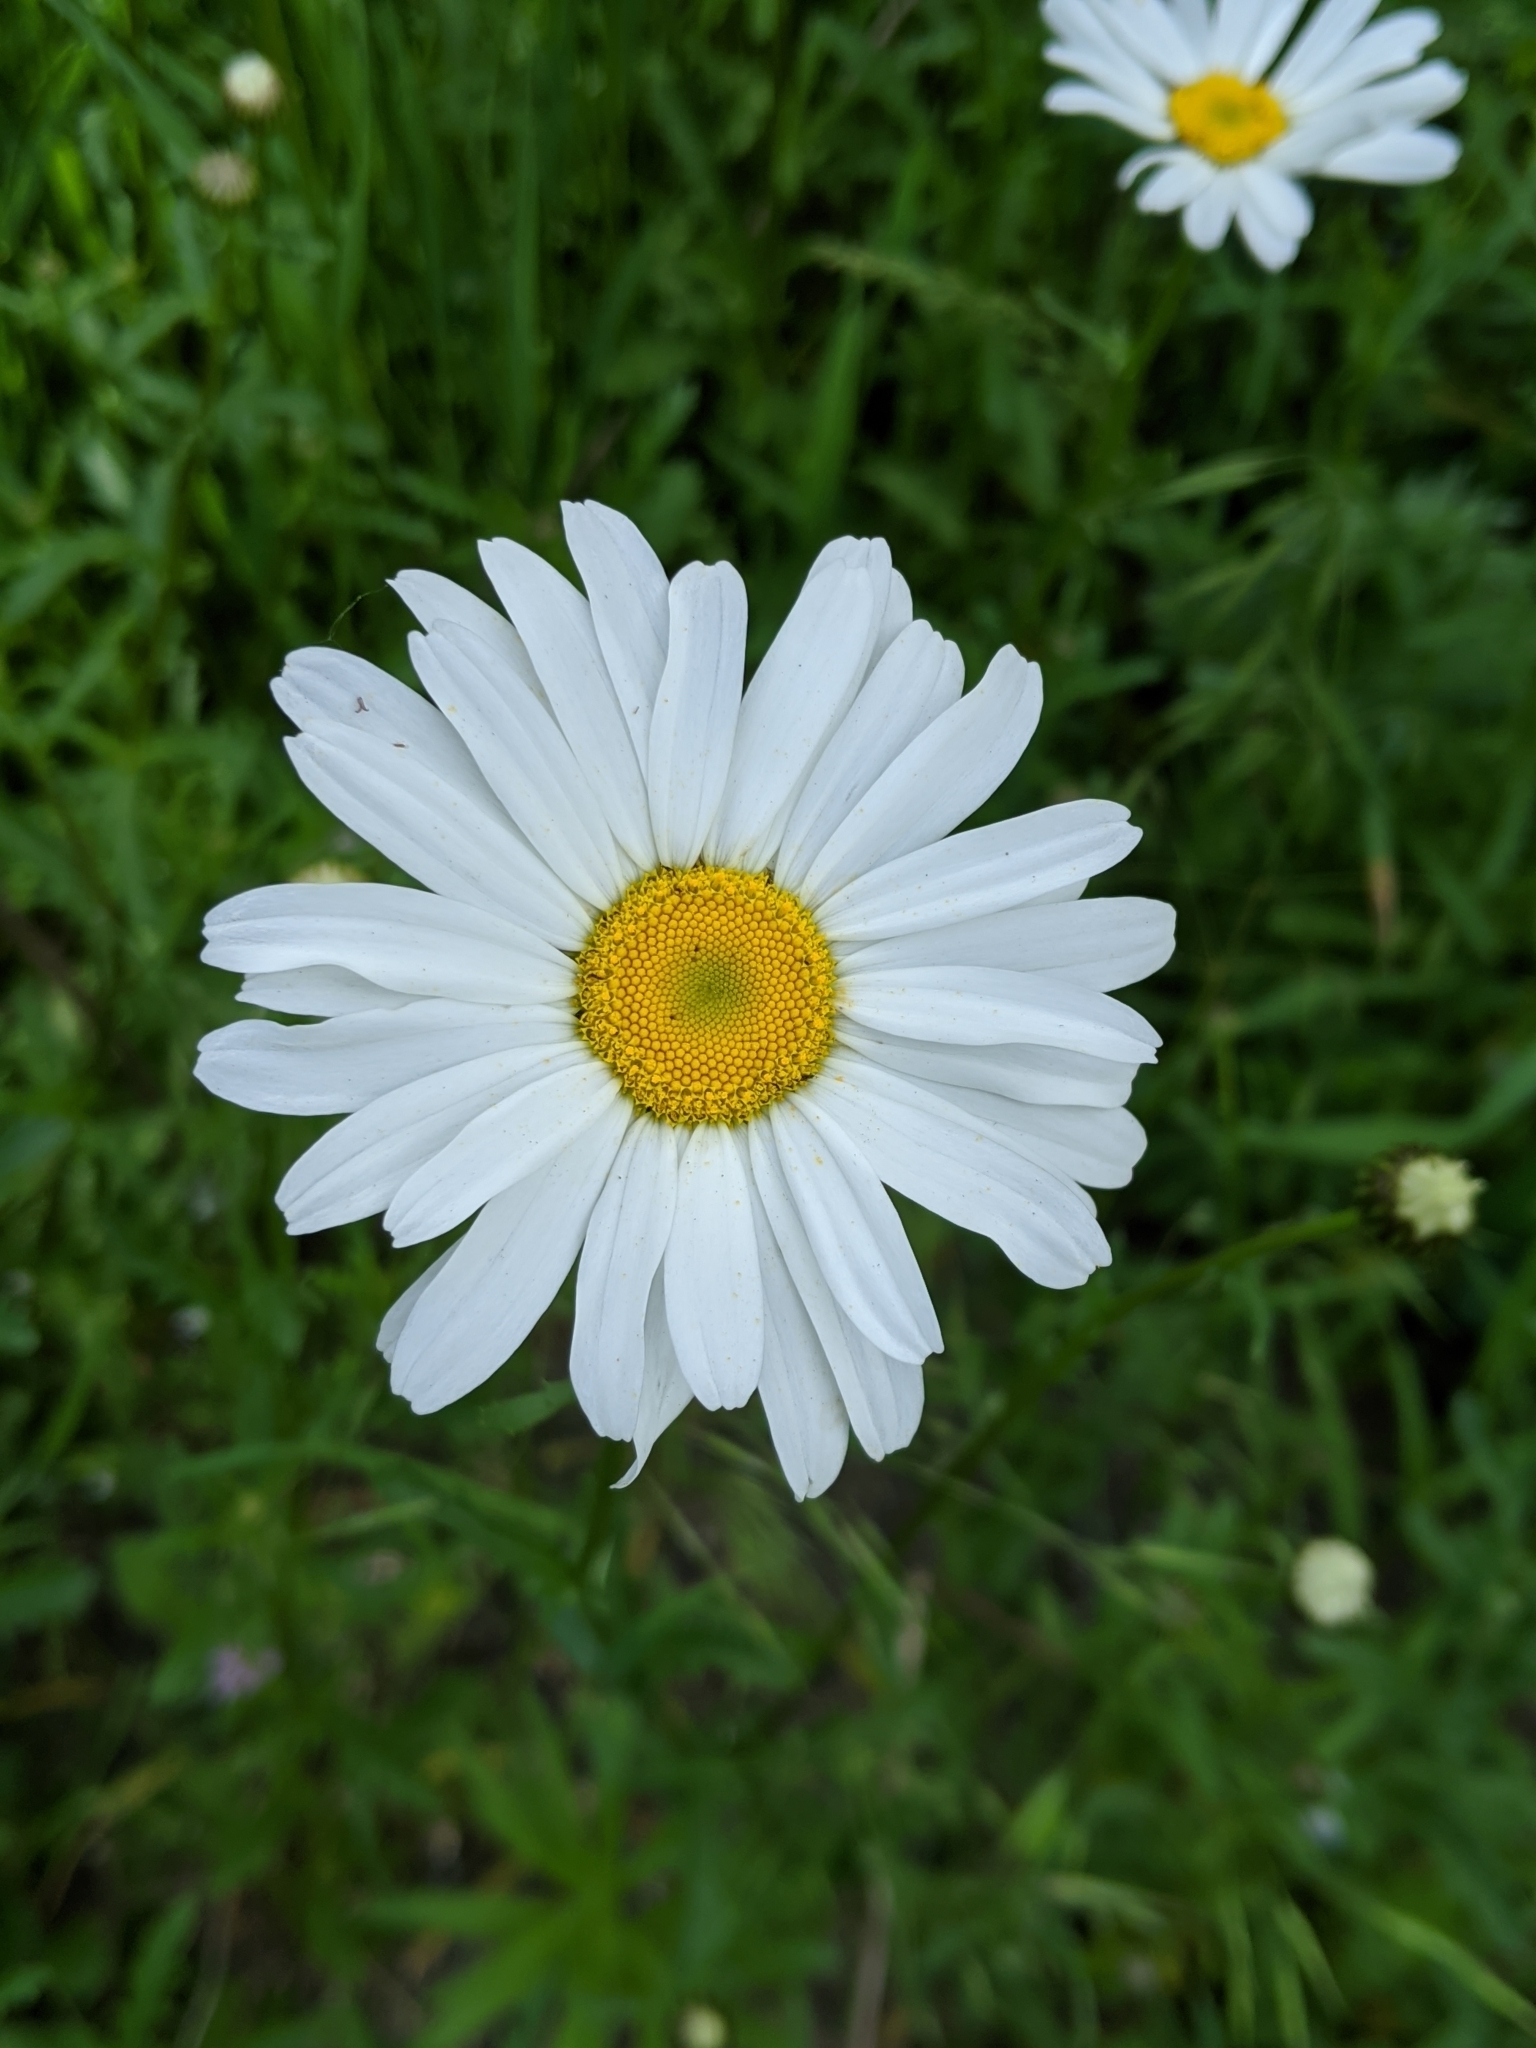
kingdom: Plantae
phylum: Tracheophyta
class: Magnoliopsida
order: Asterales
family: Asteraceae
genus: Leucanthemum
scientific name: Leucanthemum vulgare
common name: Oxeye daisy
